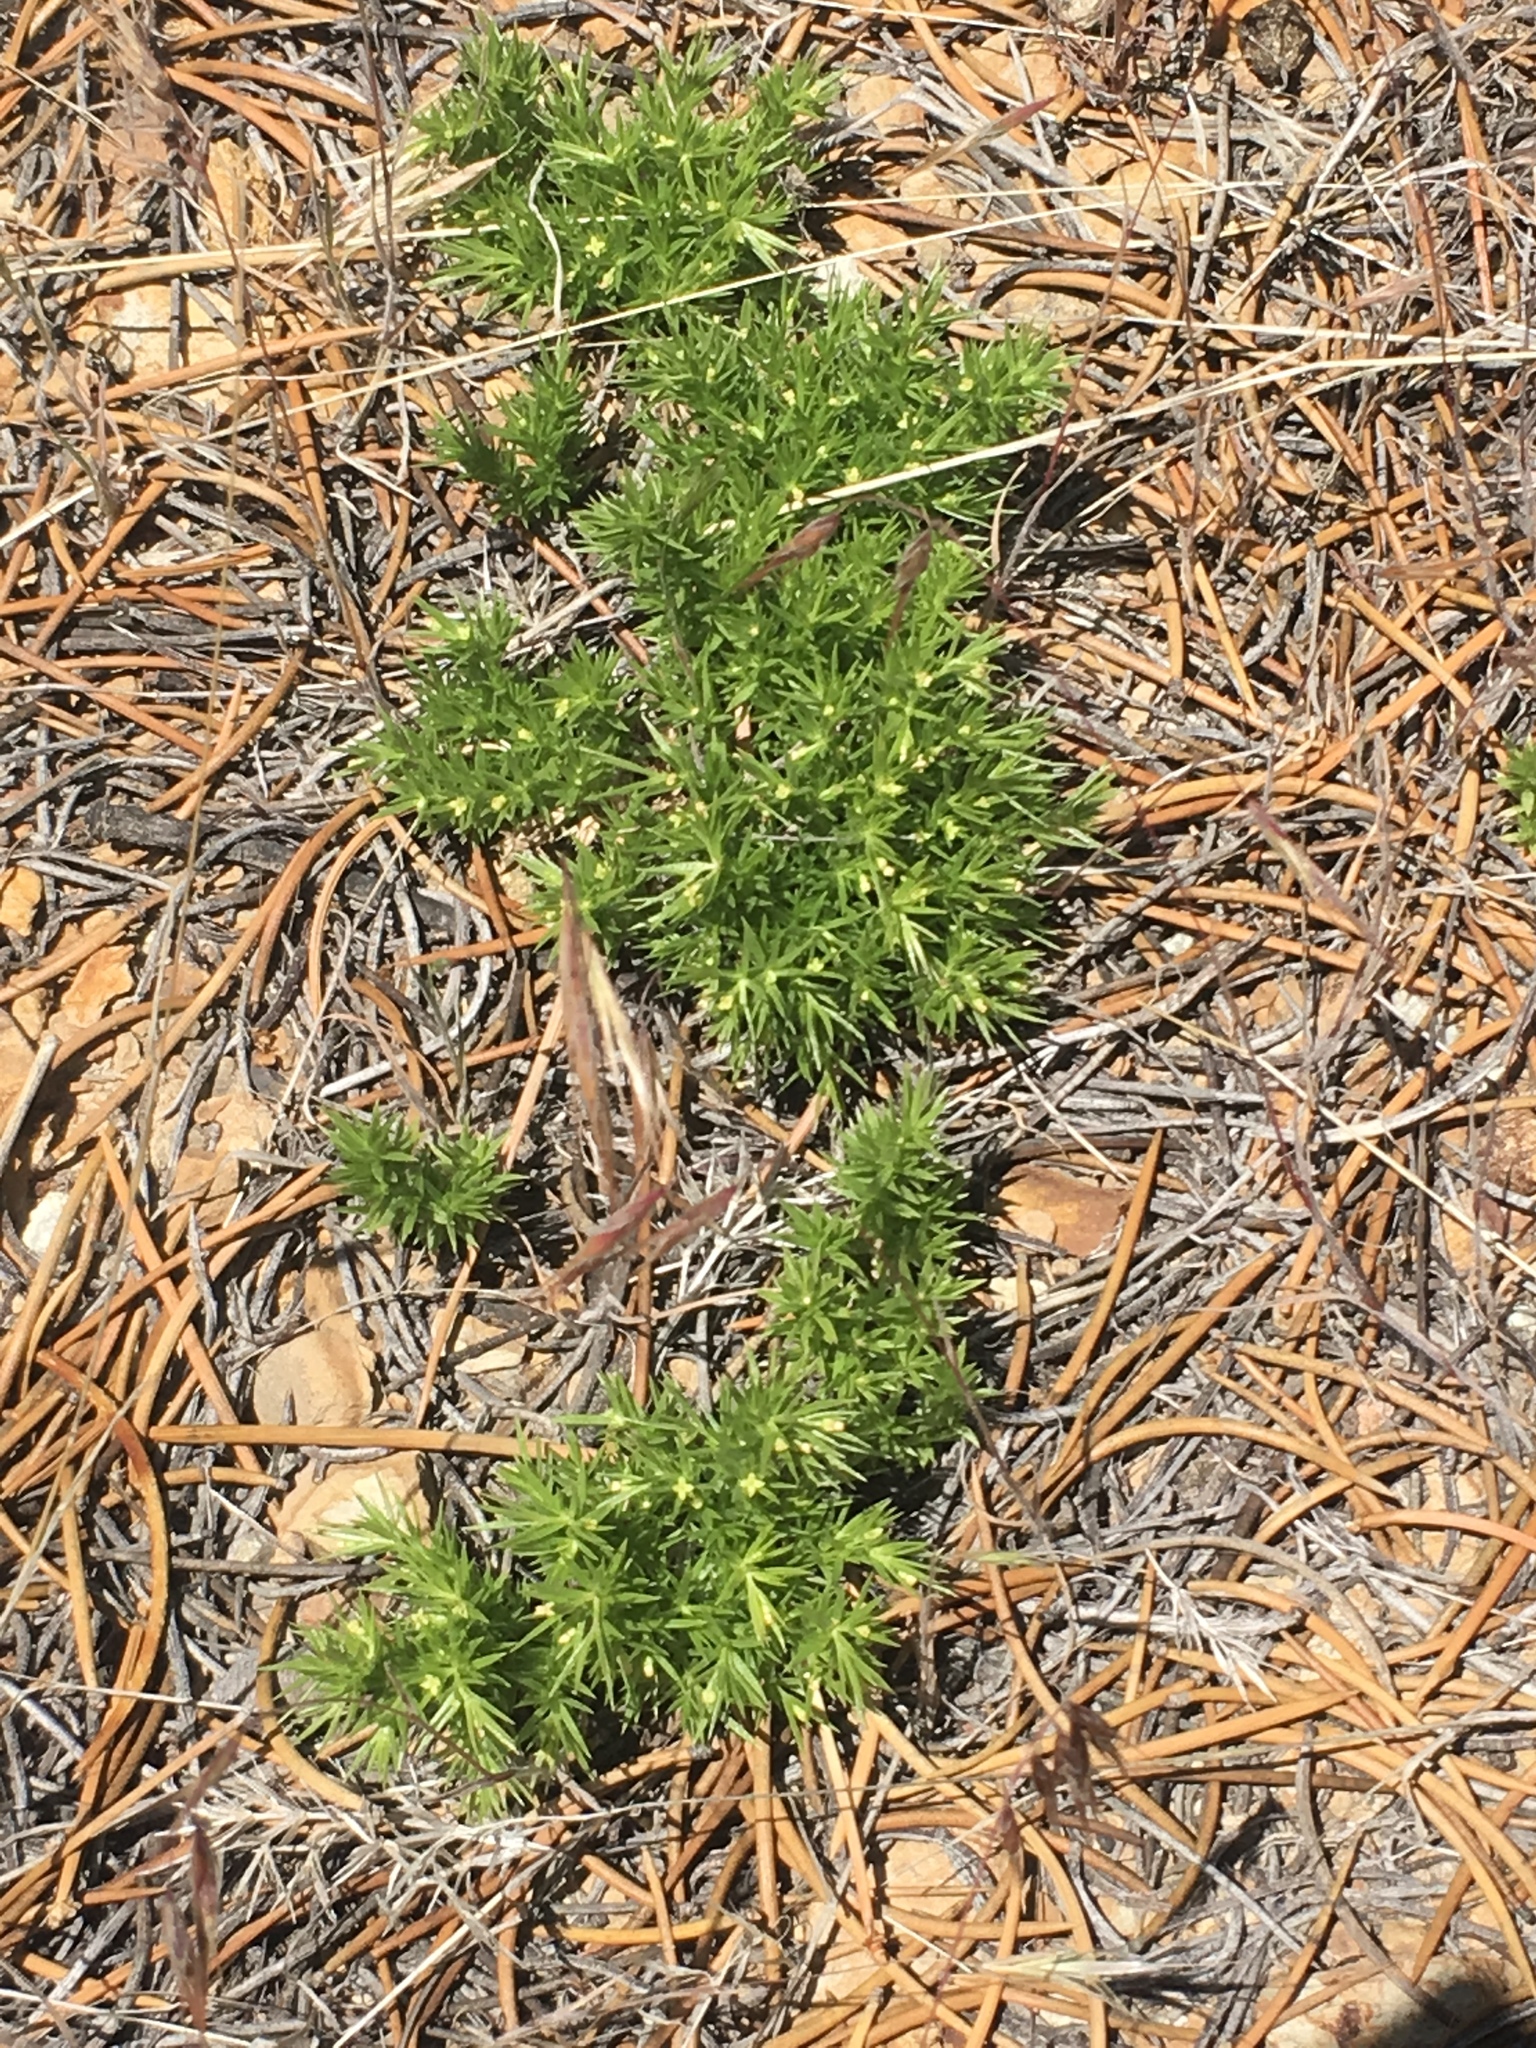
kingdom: Plantae
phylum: Tracheophyta
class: Magnoliopsida
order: Gentianales
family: Rubiaceae
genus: Galium
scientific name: Galium andrewsii
